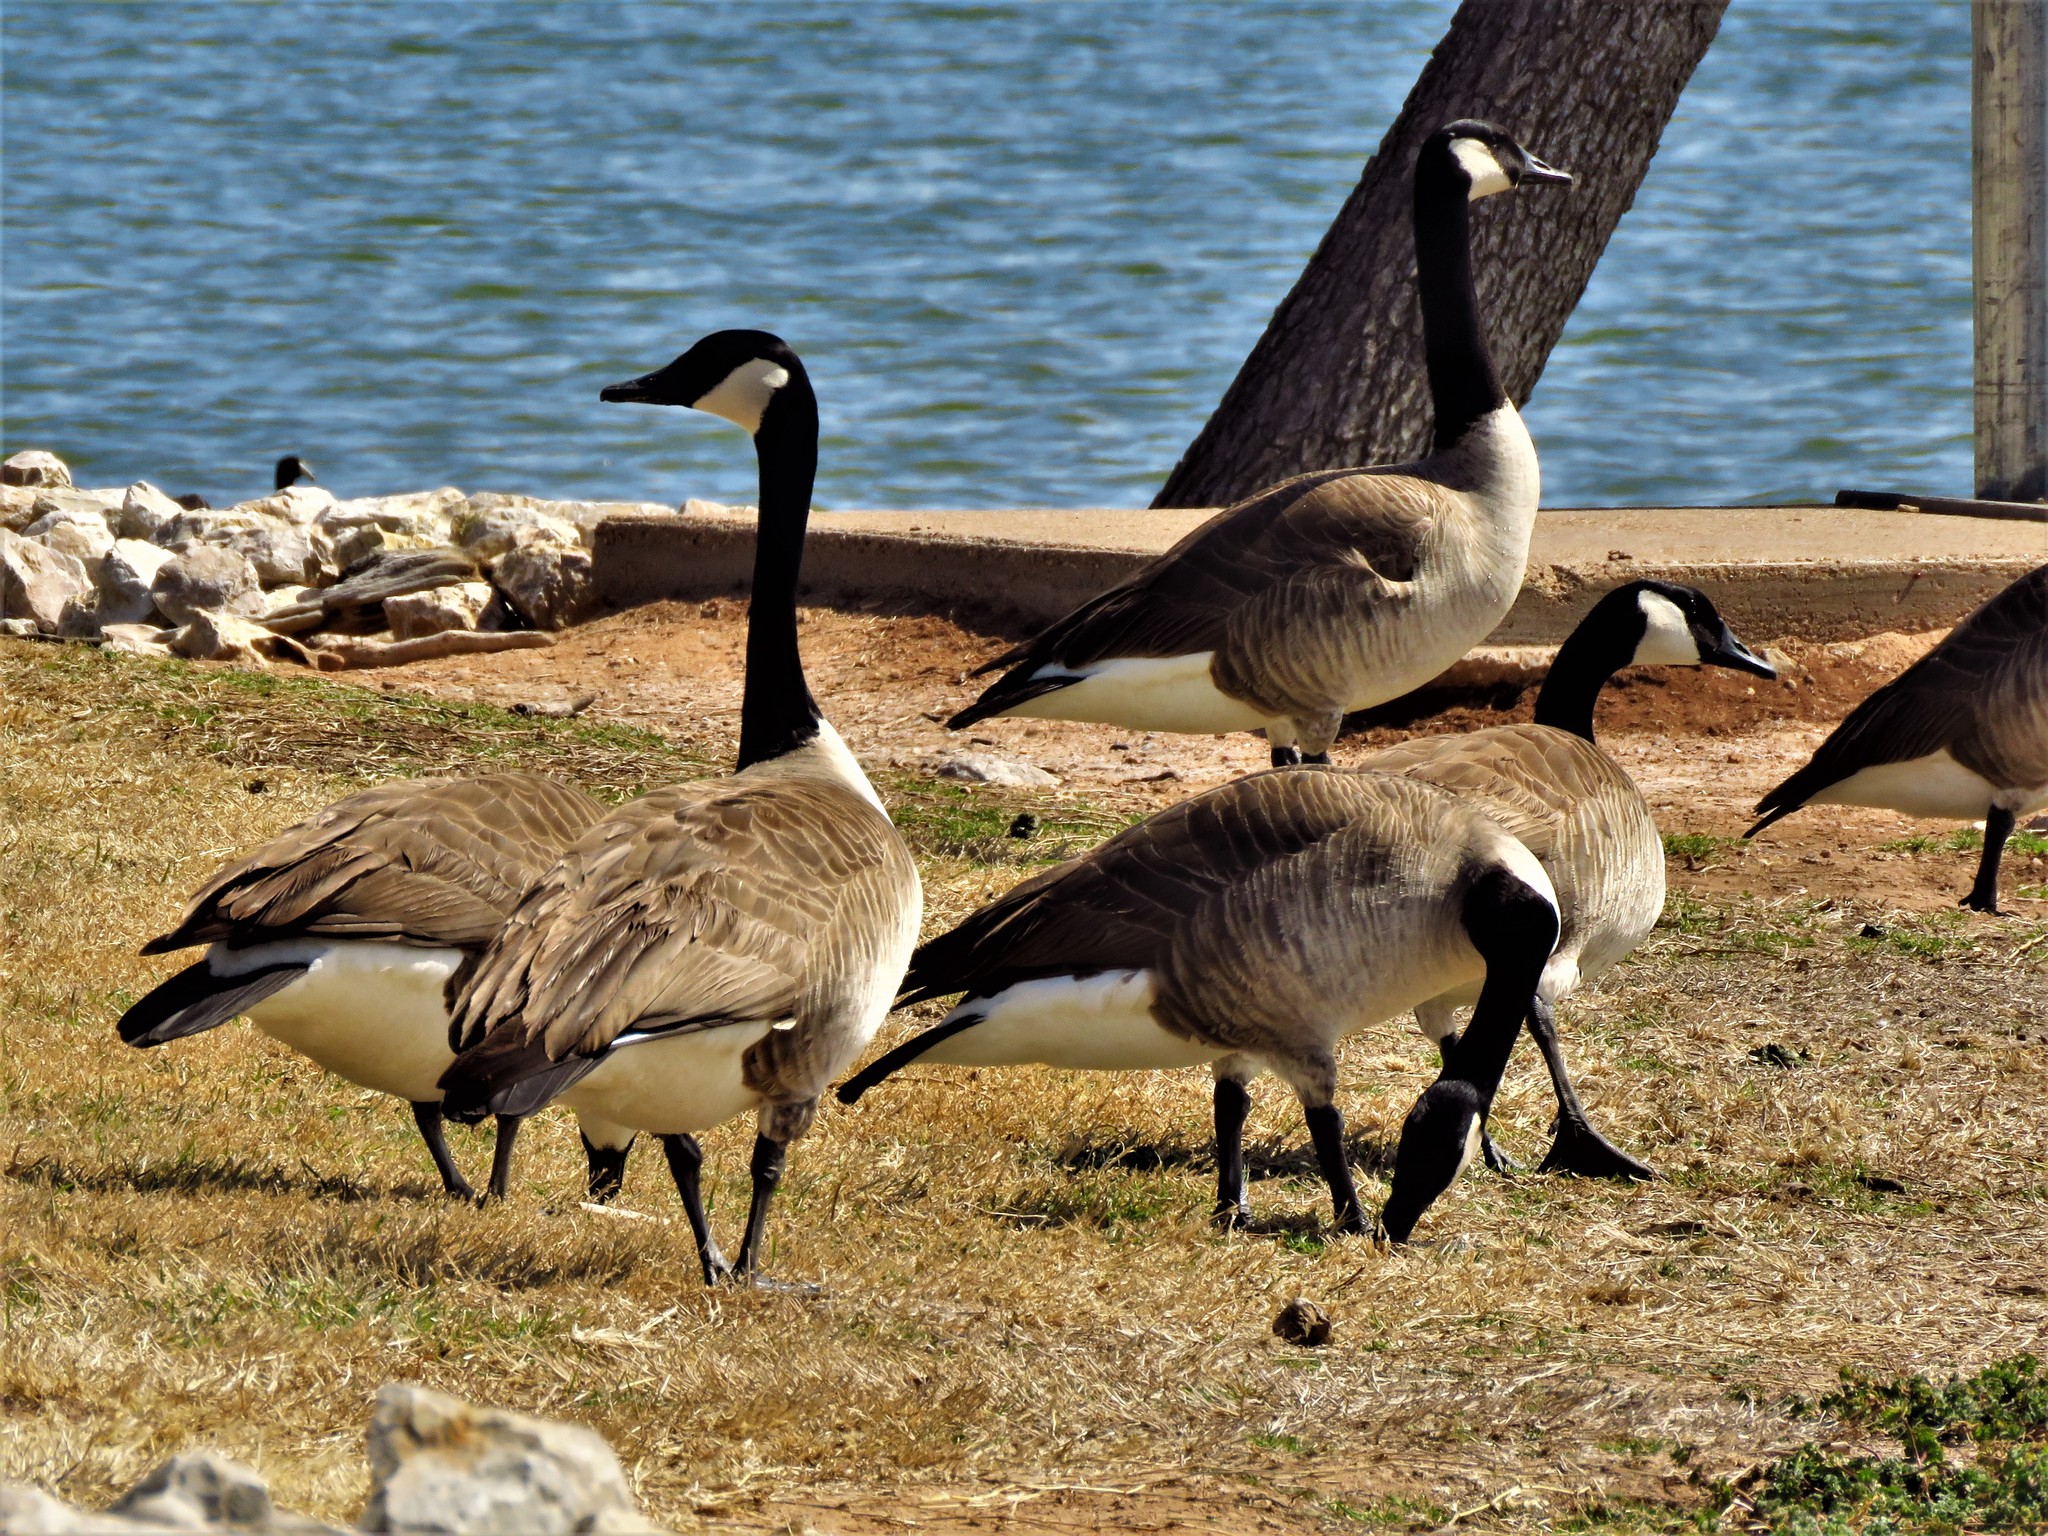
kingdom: Animalia
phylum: Chordata
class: Aves
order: Anseriformes
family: Anatidae
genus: Branta
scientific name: Branta canadensis
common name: Canada goose
